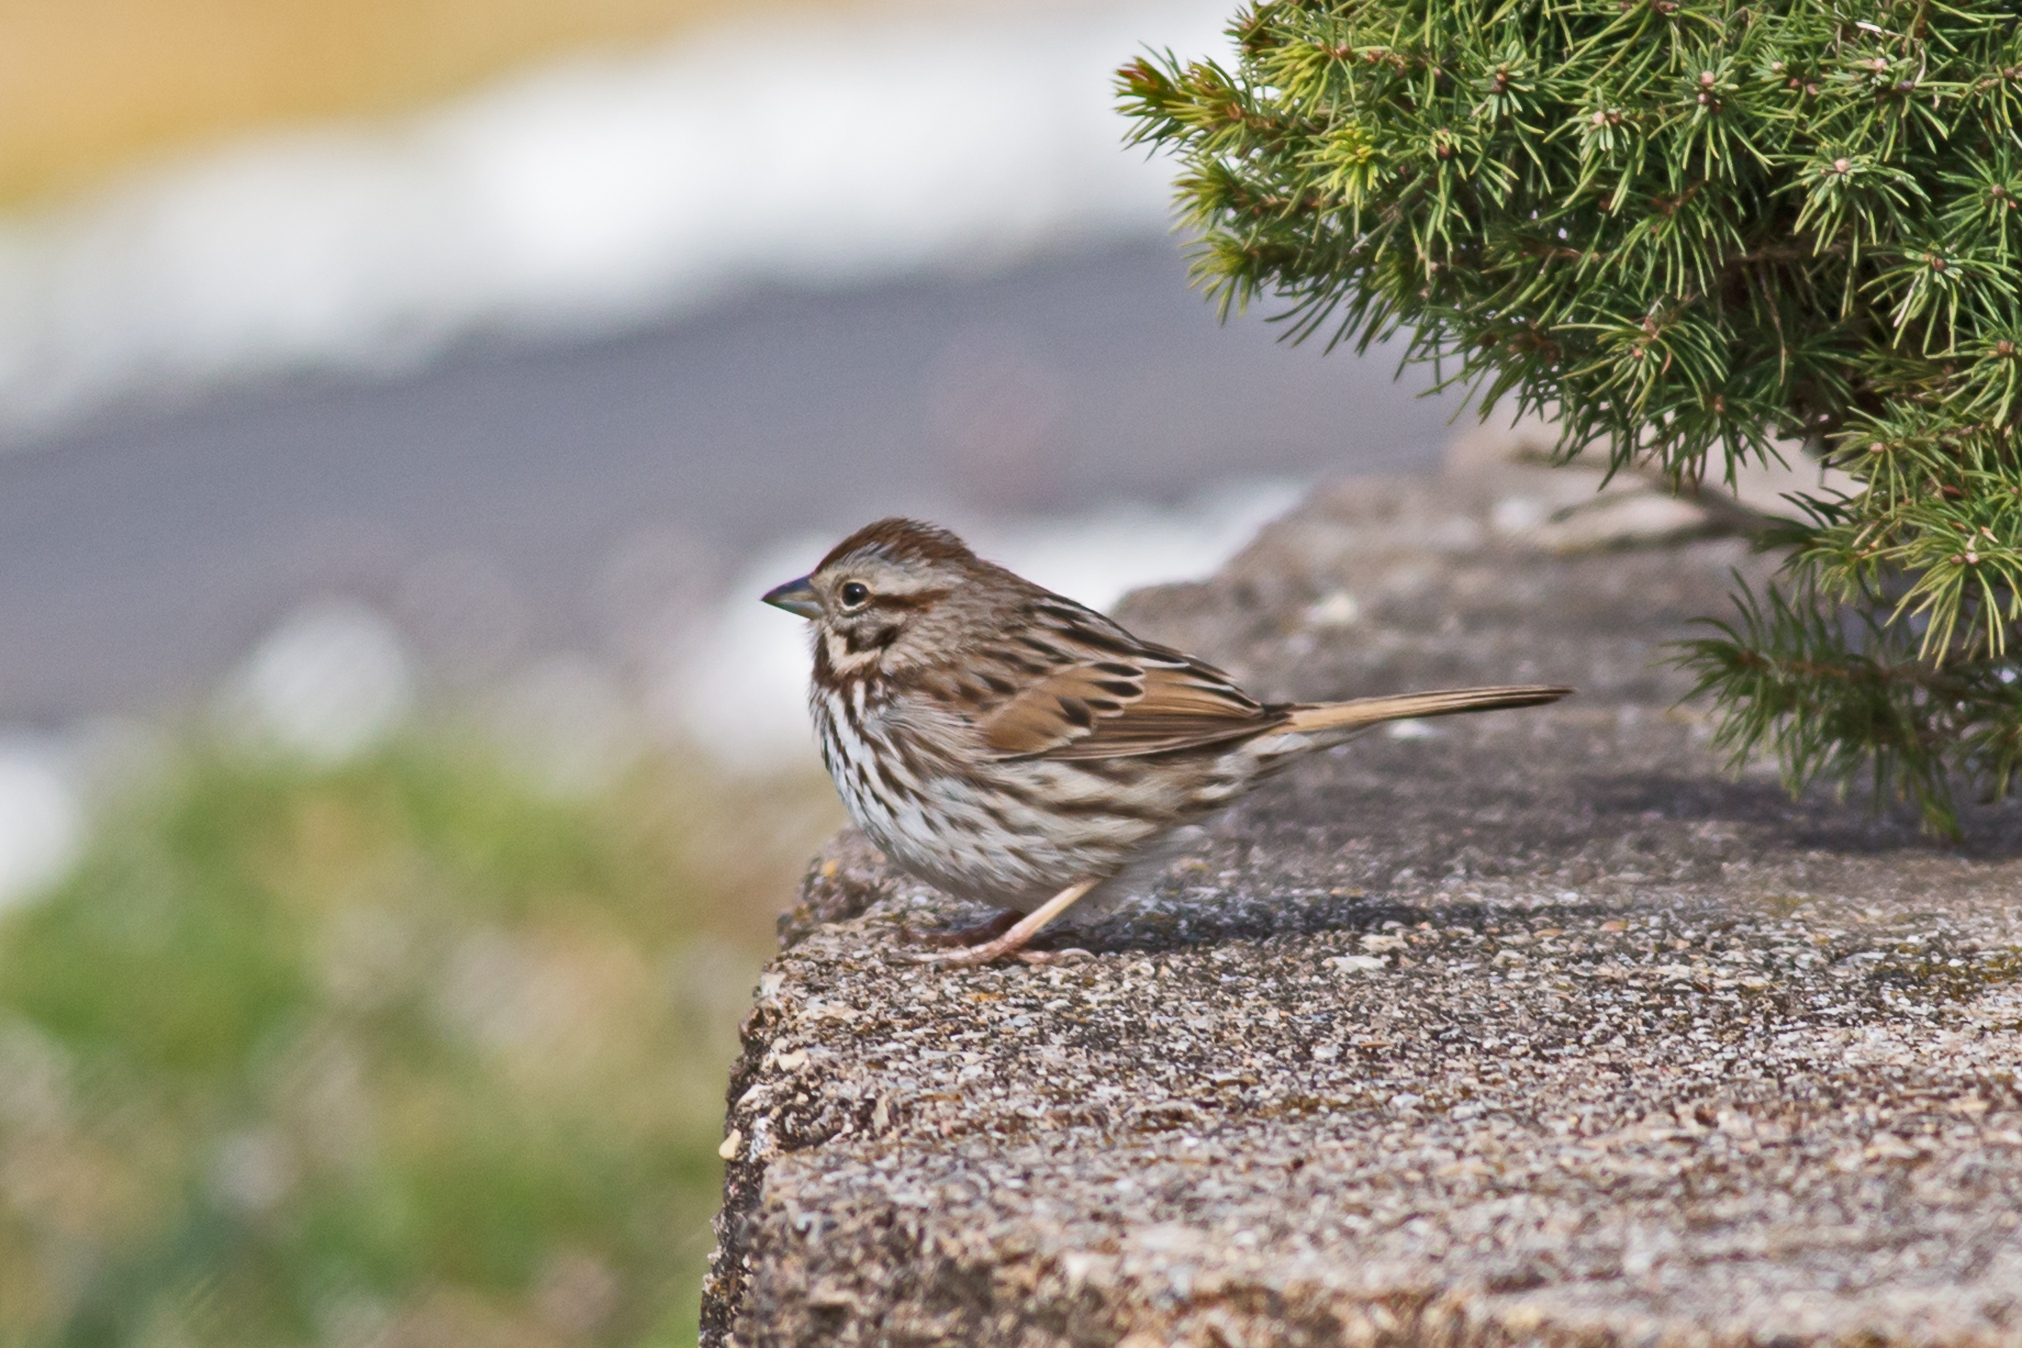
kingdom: Animalia
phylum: Chordata
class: Aves
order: Passeriformes
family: Passerellidae
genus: Melospiza
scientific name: Melospiza melodia
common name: Song sparrow
